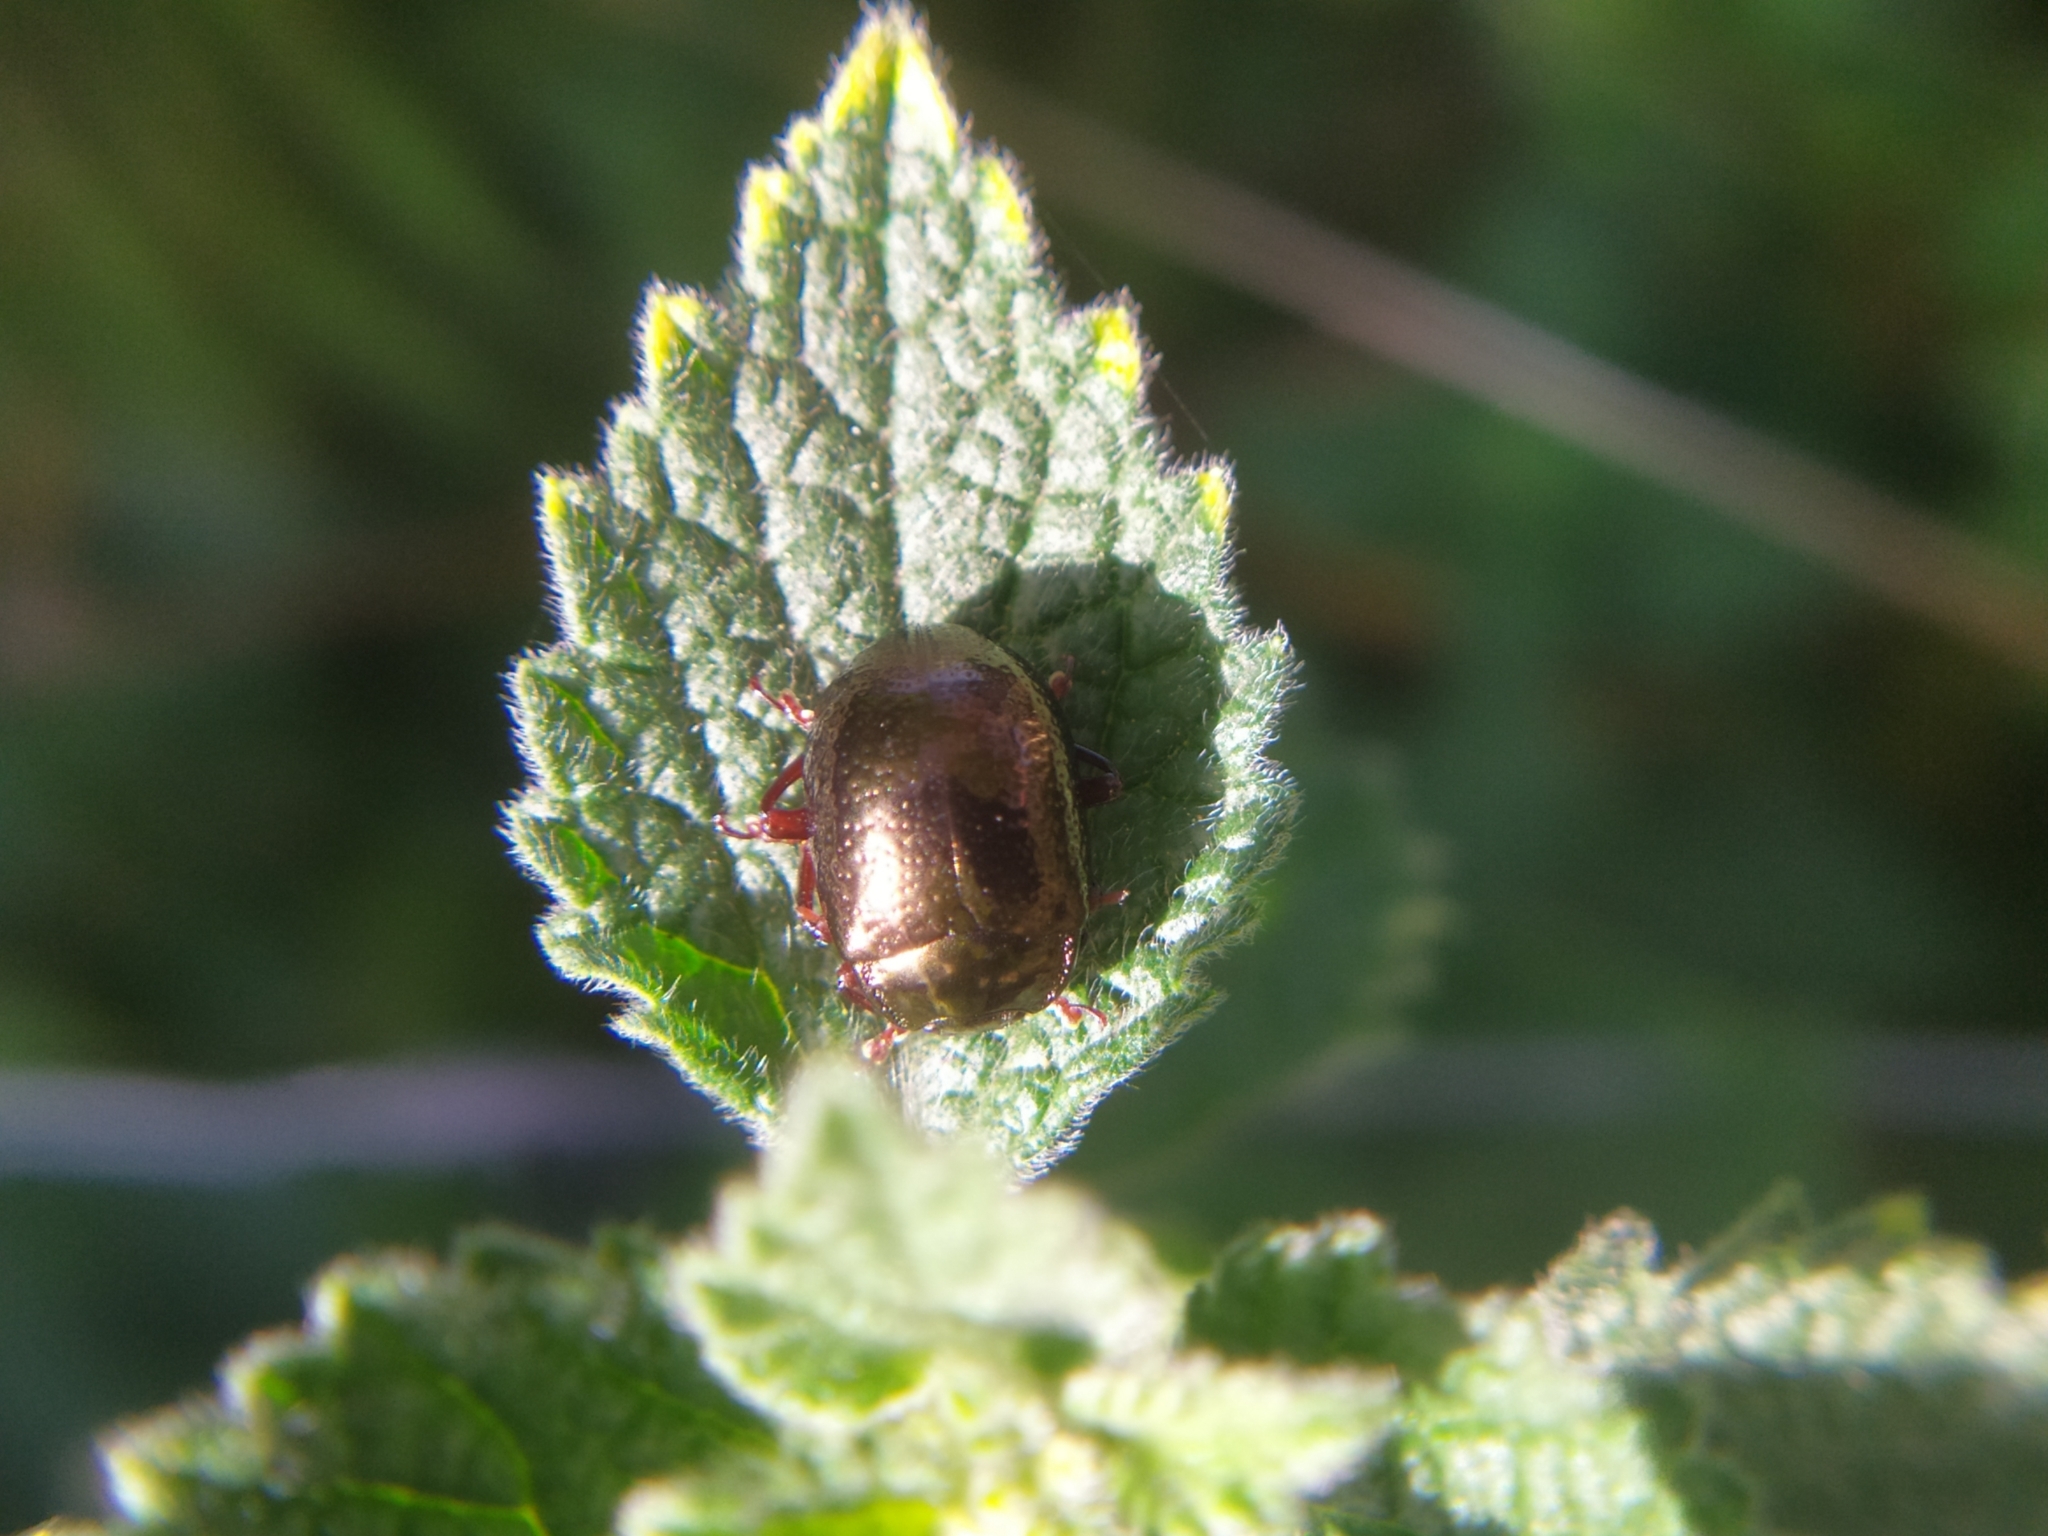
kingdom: Animalia
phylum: Arthropoda
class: Insecta
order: Coleoptera
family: Chrysomelidae
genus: Chrysolina
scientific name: Chrysolina bankii
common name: Leaf beetle
